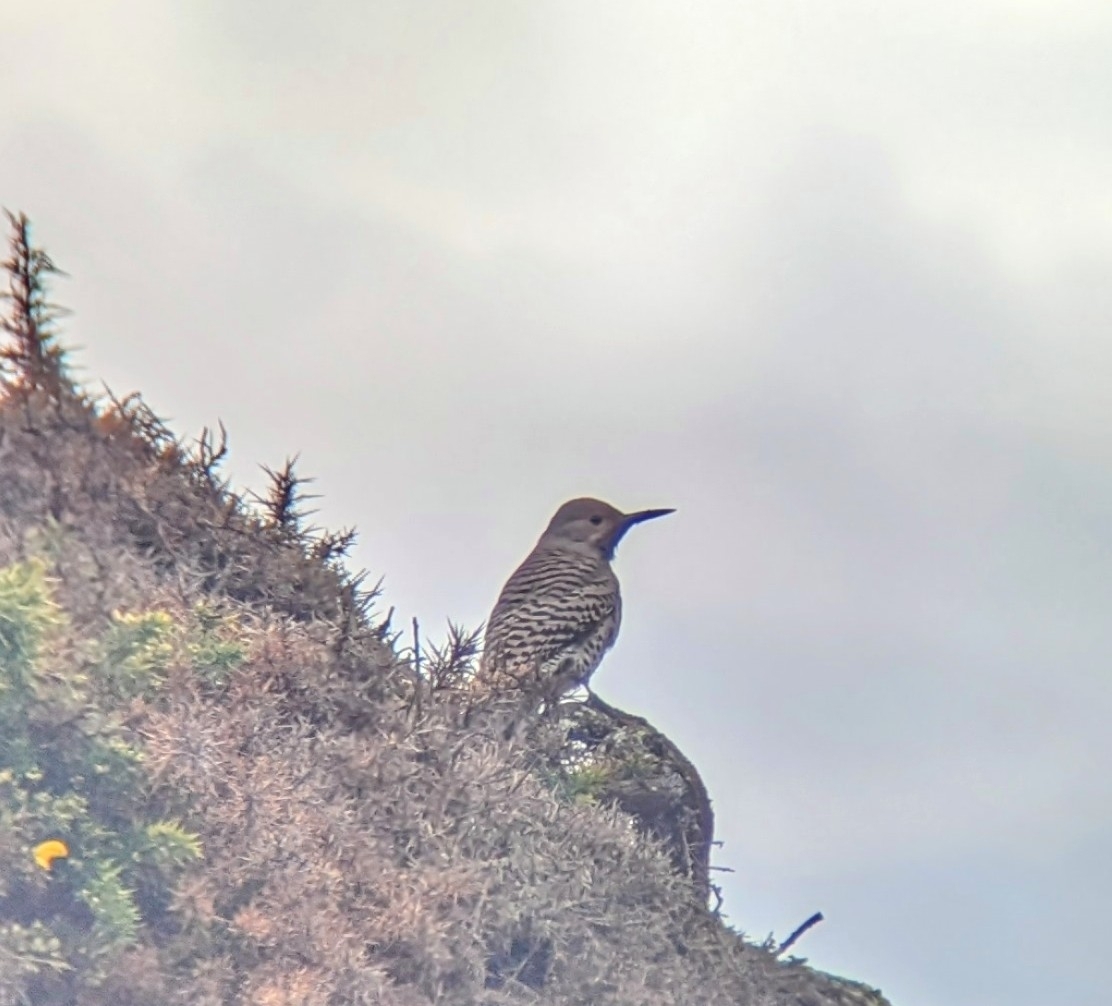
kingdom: Animalia
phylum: Chordata
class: Aves
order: Piciformes
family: Picidae
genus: Colaptes
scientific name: Colaptes auratus
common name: Northern flicker
